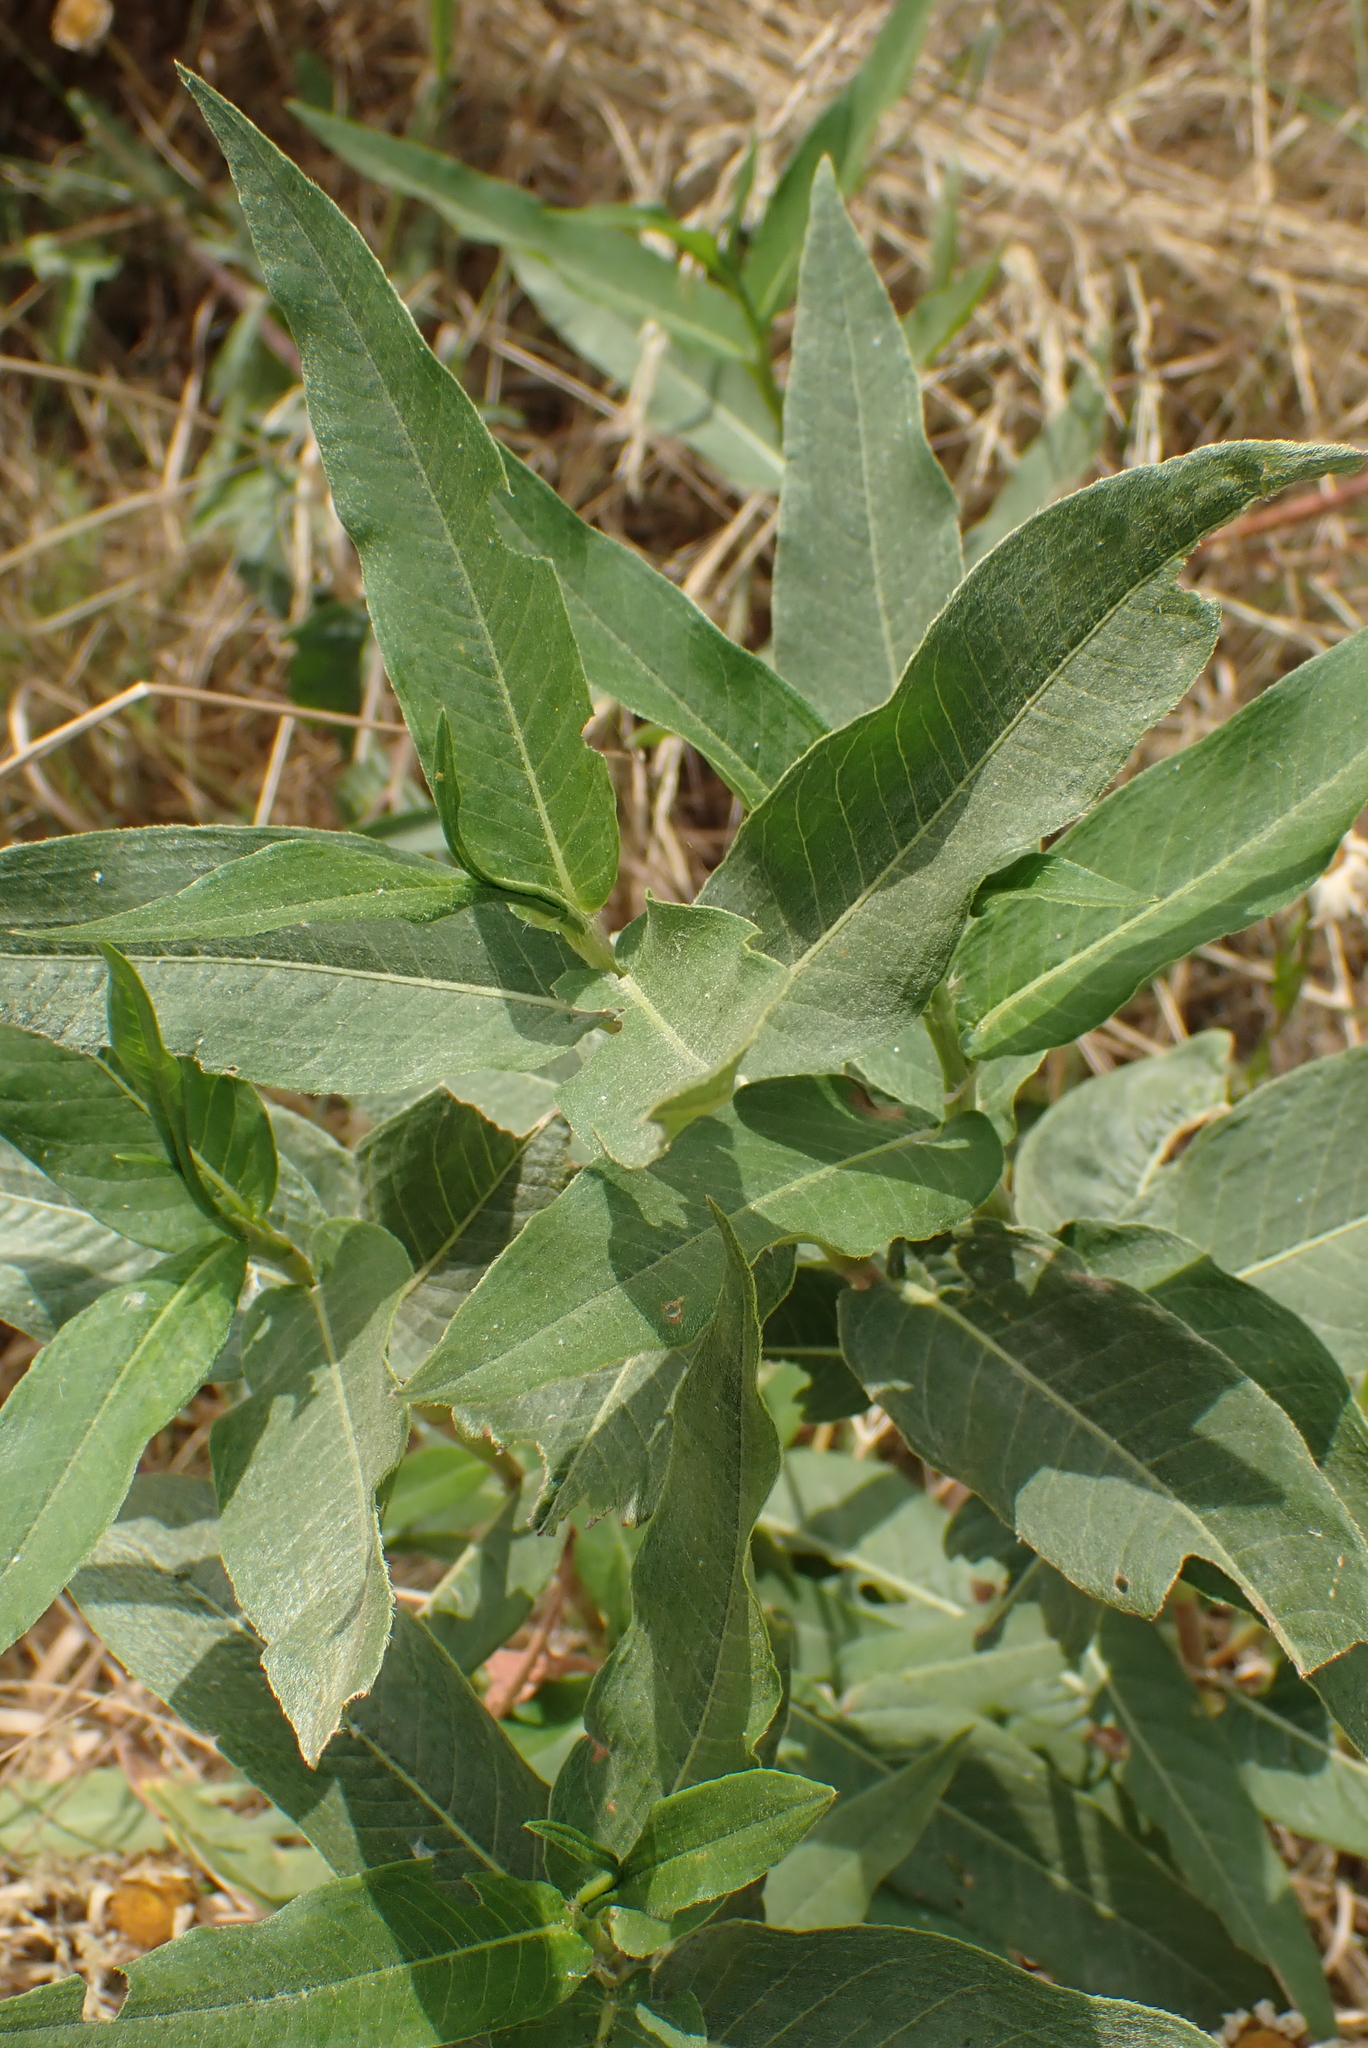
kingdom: Plantae
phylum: Tracheophyta
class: Magnoliopsida
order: Caryophyllales
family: Polygonaceae
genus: Persicaria
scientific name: Persicaria amphibia
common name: Amphibious bistort
